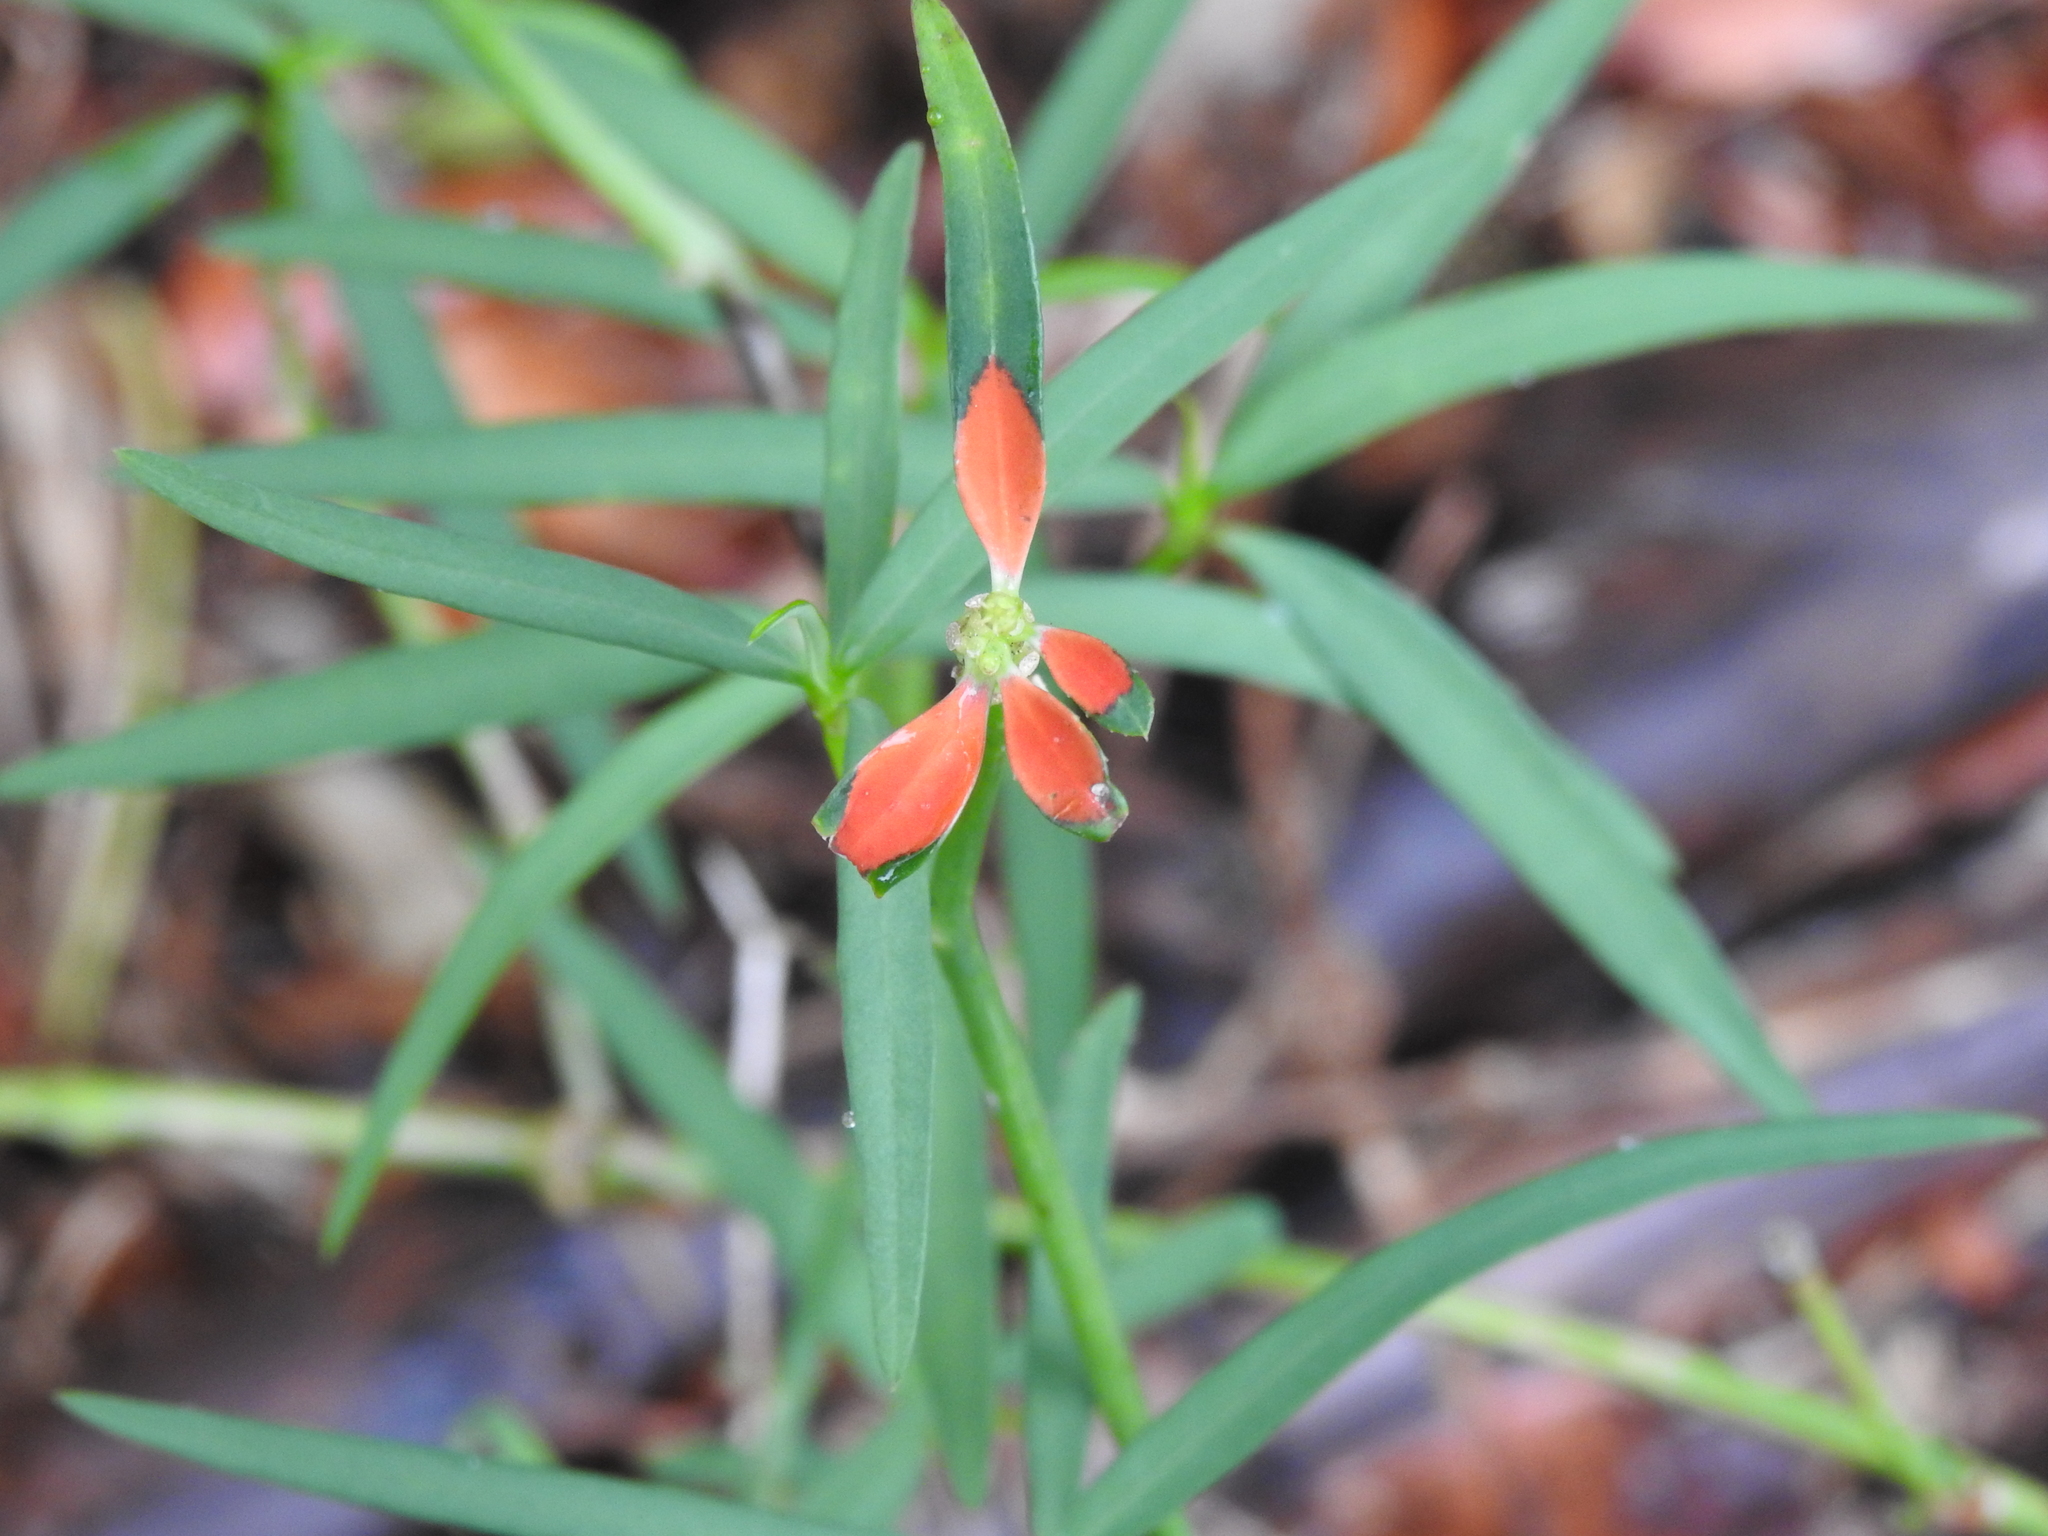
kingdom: Plantae
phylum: Tracheophyta
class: Magnoliopsida
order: Malpighiales
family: Euphorbiaceae
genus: Euphorbia
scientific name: Euphorbia heterophylla
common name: Mexican fireplant
